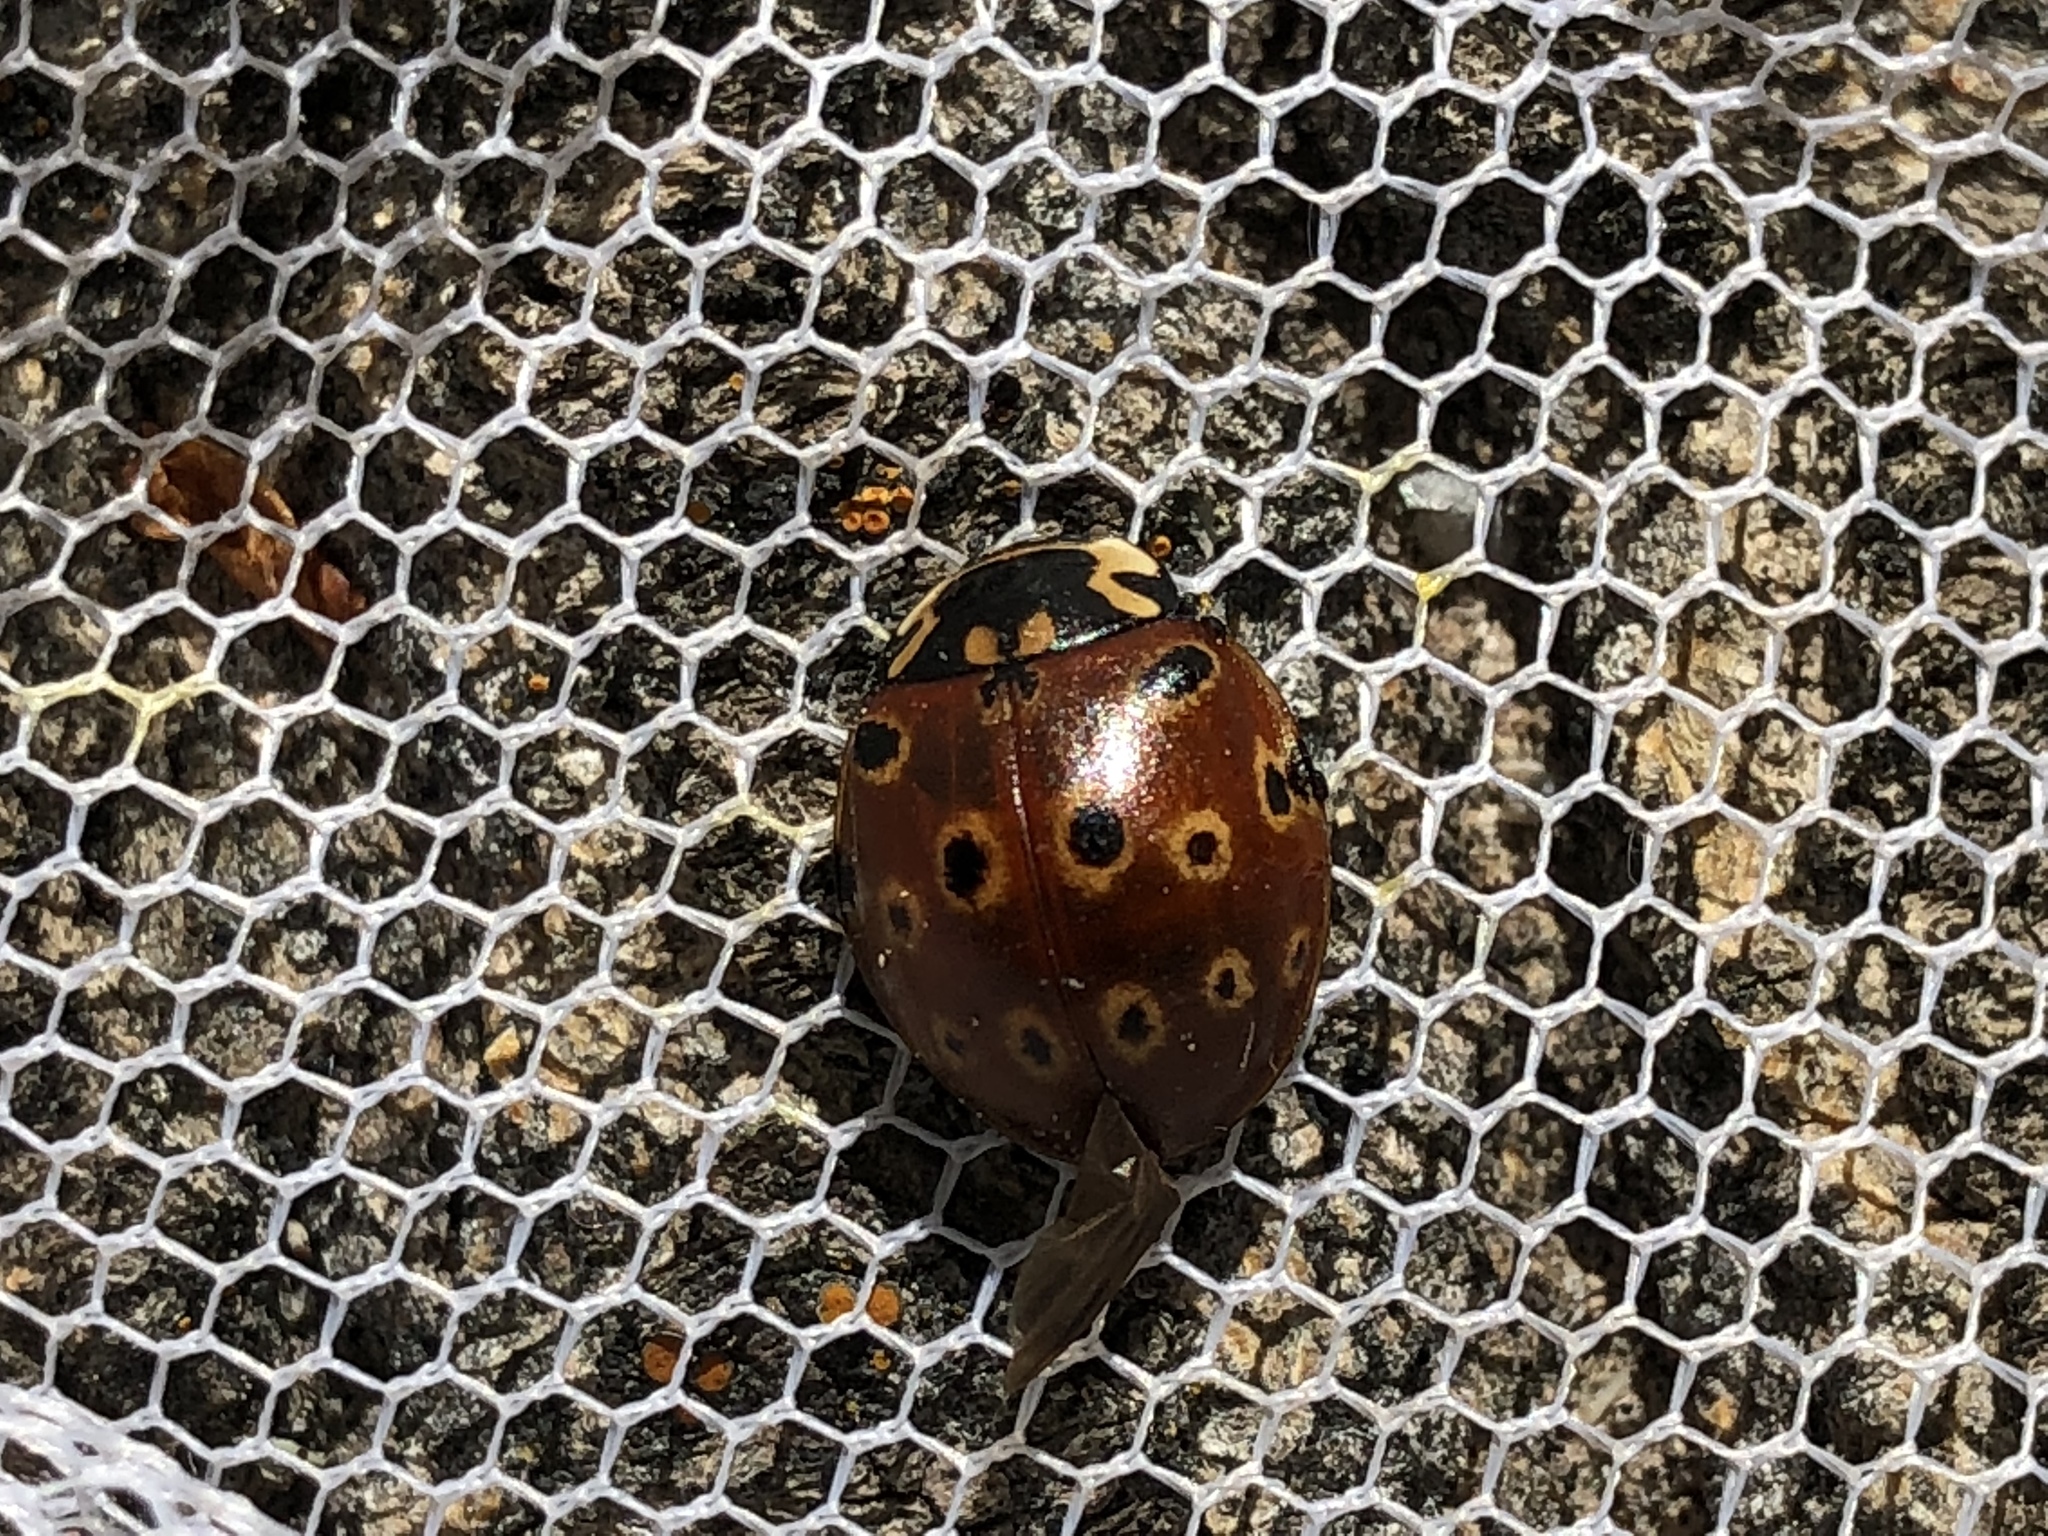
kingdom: Animalia
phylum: Arthropoda
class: Insecta
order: Coleoptera
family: Coccinellidae
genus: Anatis
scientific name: Anatis mali
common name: Eye-spotted lady beetle
